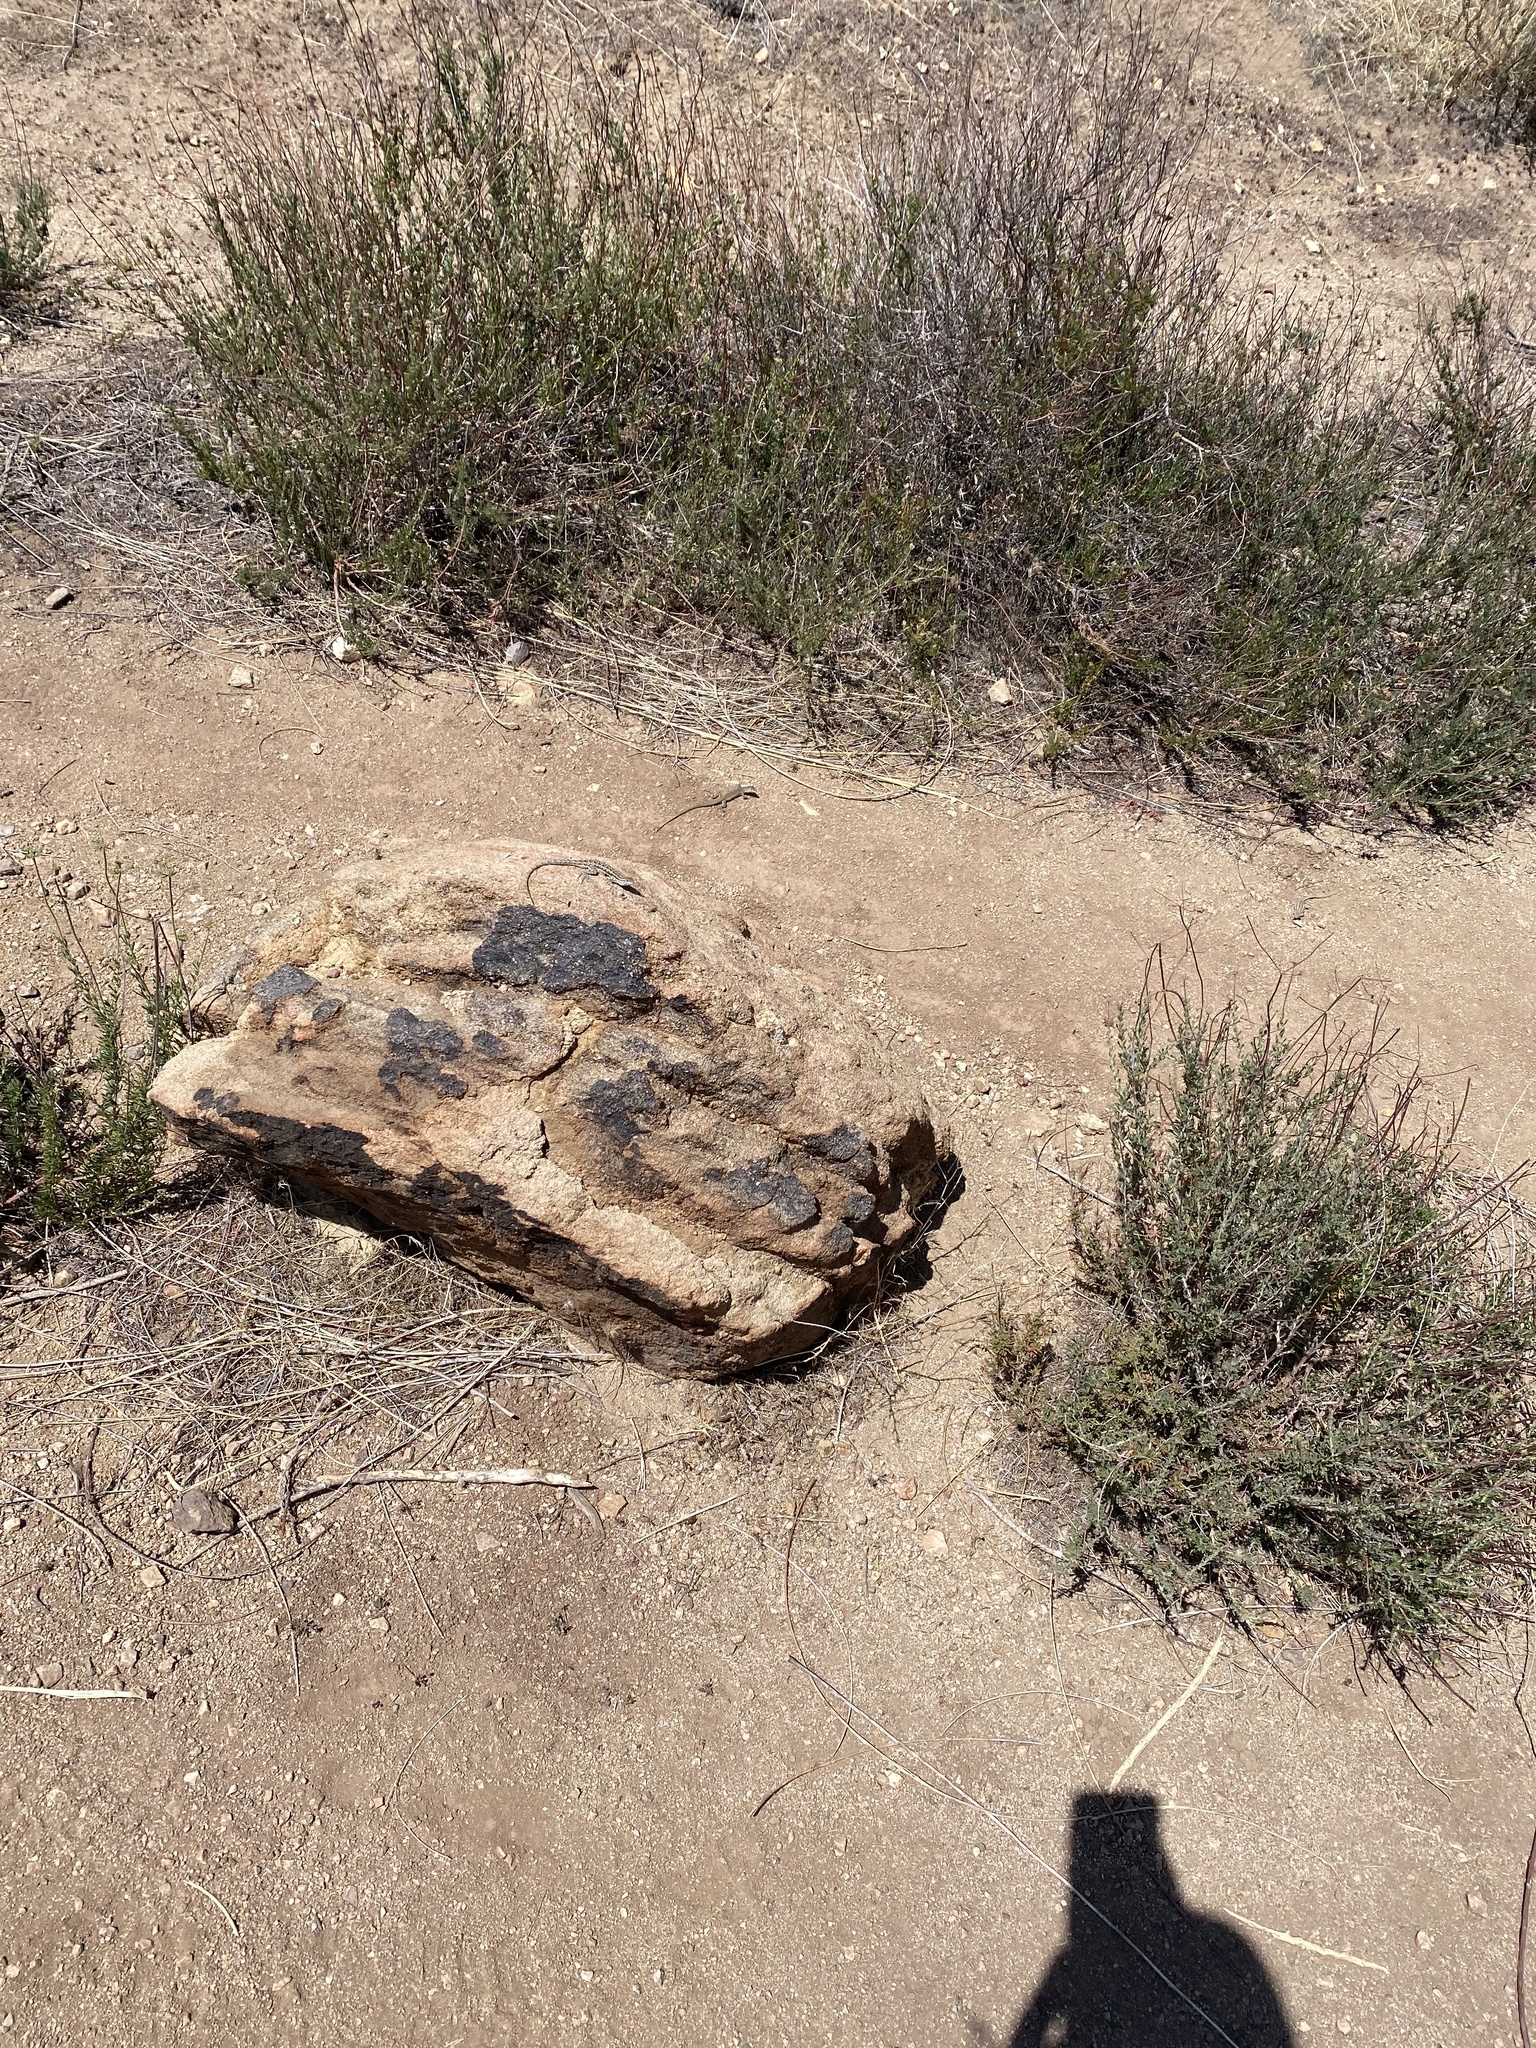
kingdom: Animalia
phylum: Chordata
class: Squamata
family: Phrynosomatidae
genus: Uta
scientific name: Uta stansburiana
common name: Side-blotched lizard
